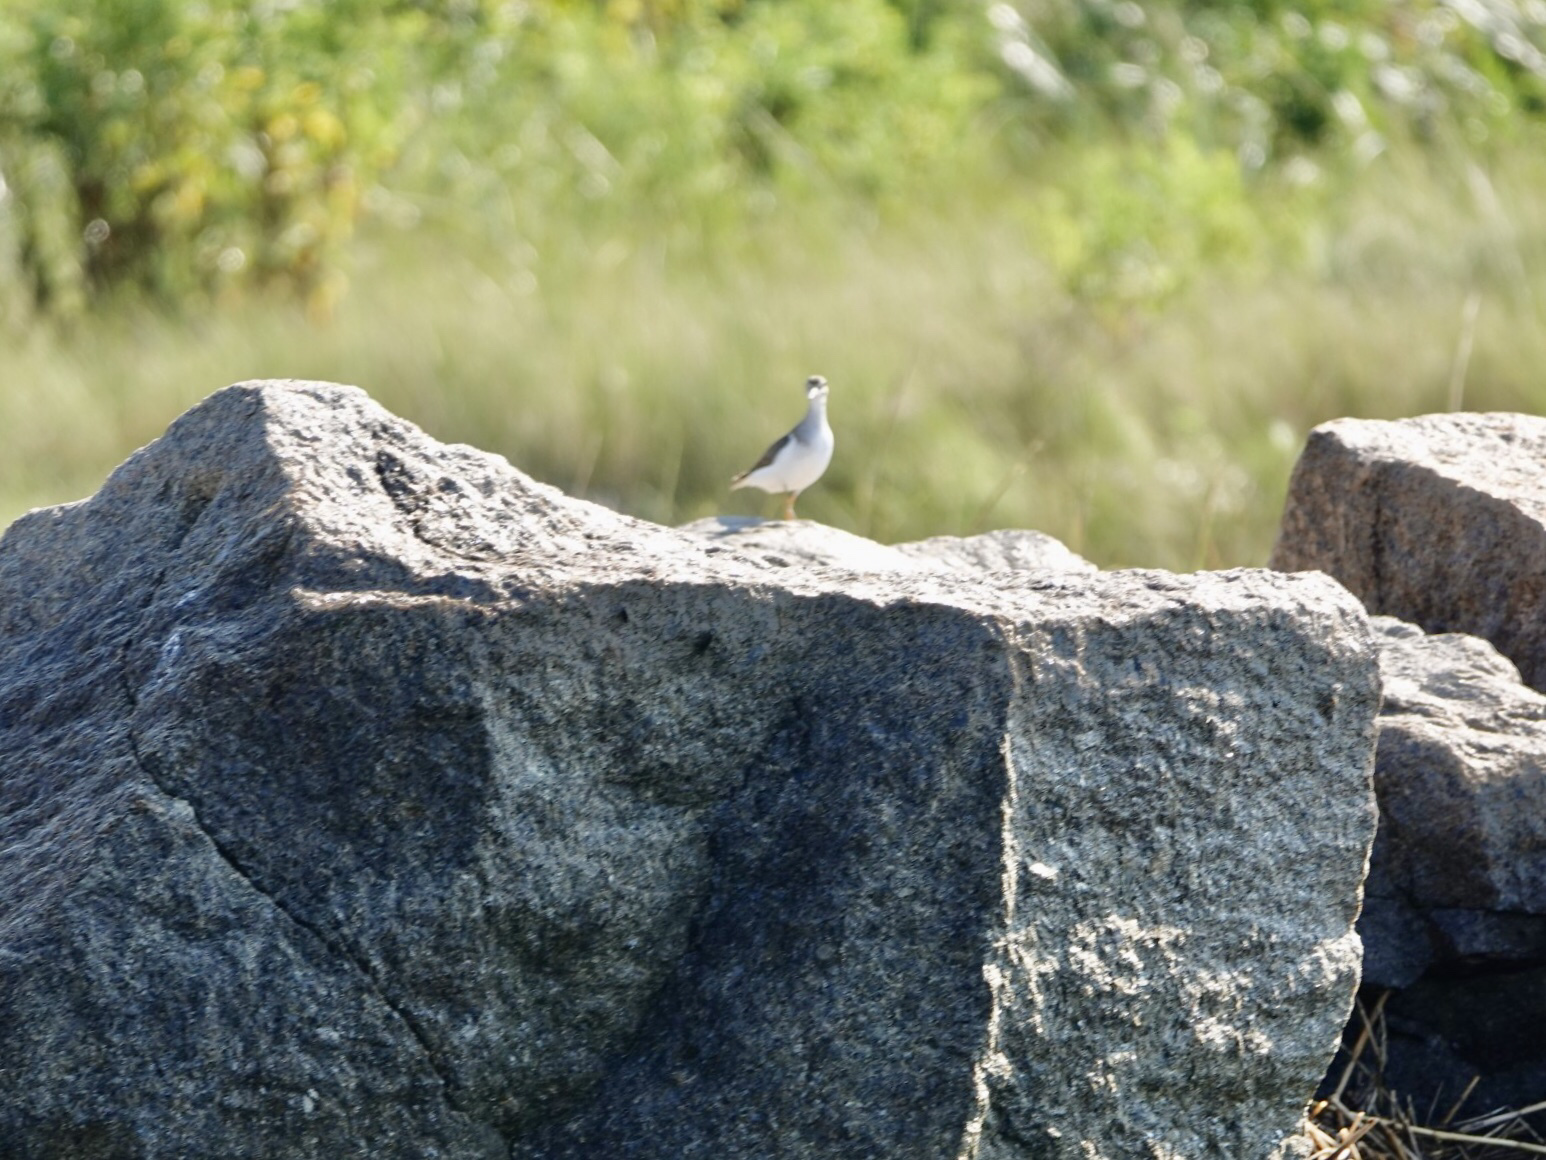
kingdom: Animalia
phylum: Chordata
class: Aves
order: Charadriiformes
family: Scolopacidae
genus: Actitis
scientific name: Actitis macularius
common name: Spotted sandpiper
